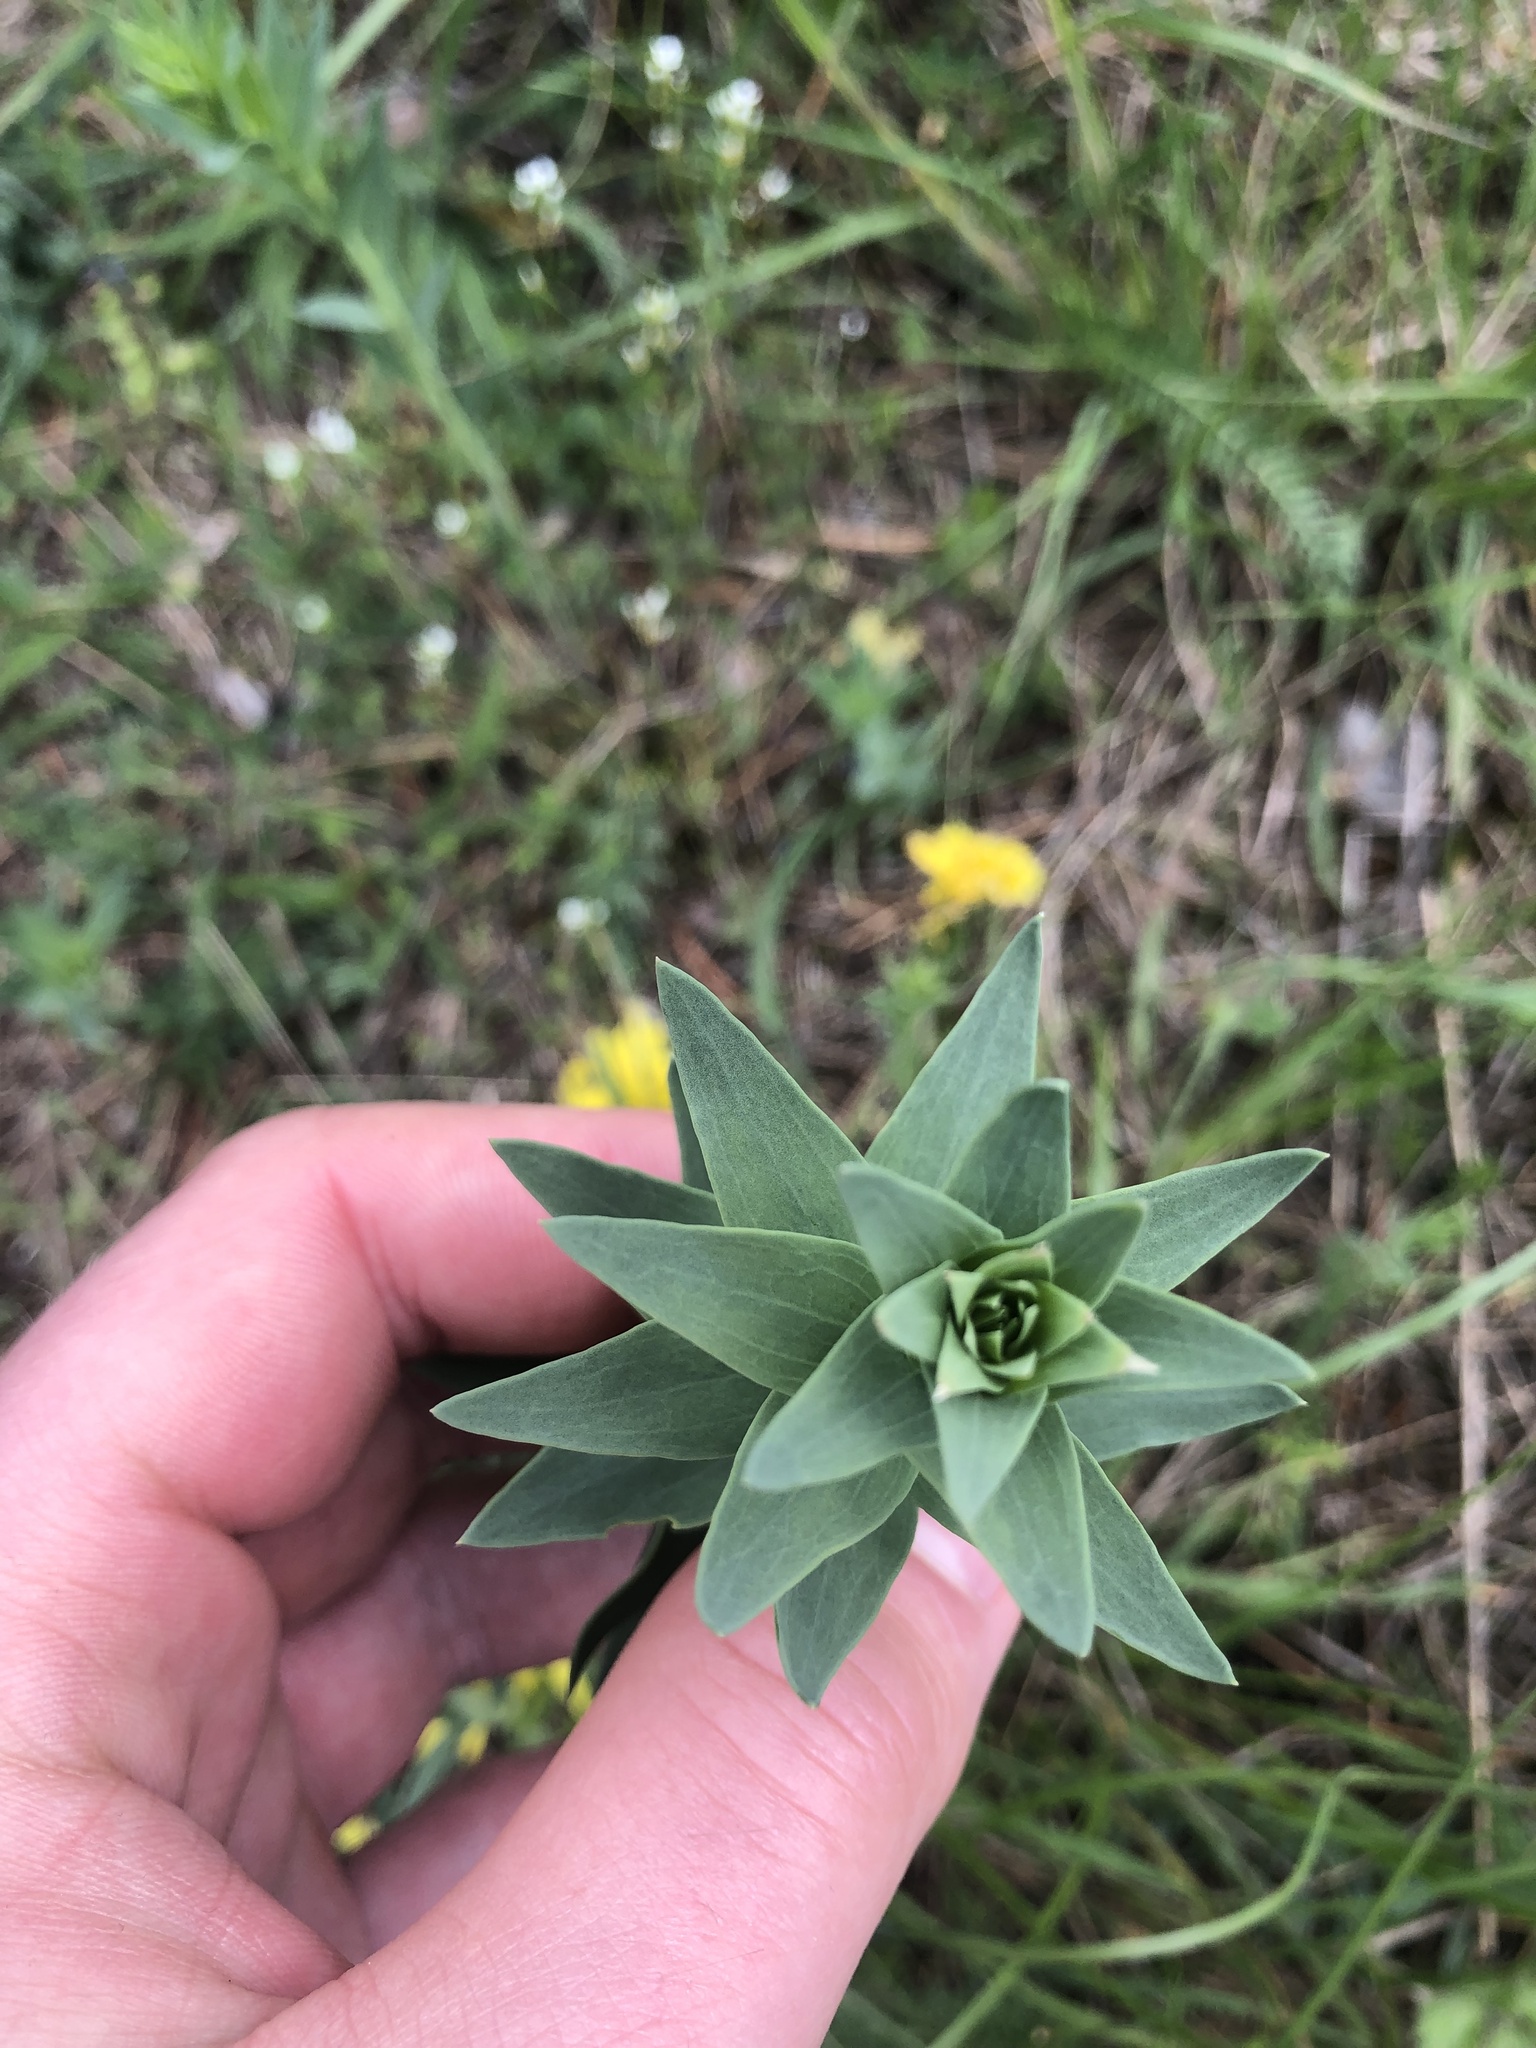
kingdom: Plantae
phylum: Tracheophyta
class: Magnoliopsida
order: Lamiales
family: Plantaginaceae
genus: Linaria
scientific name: Linaria genistifolia
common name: Broomleaf toadflax
